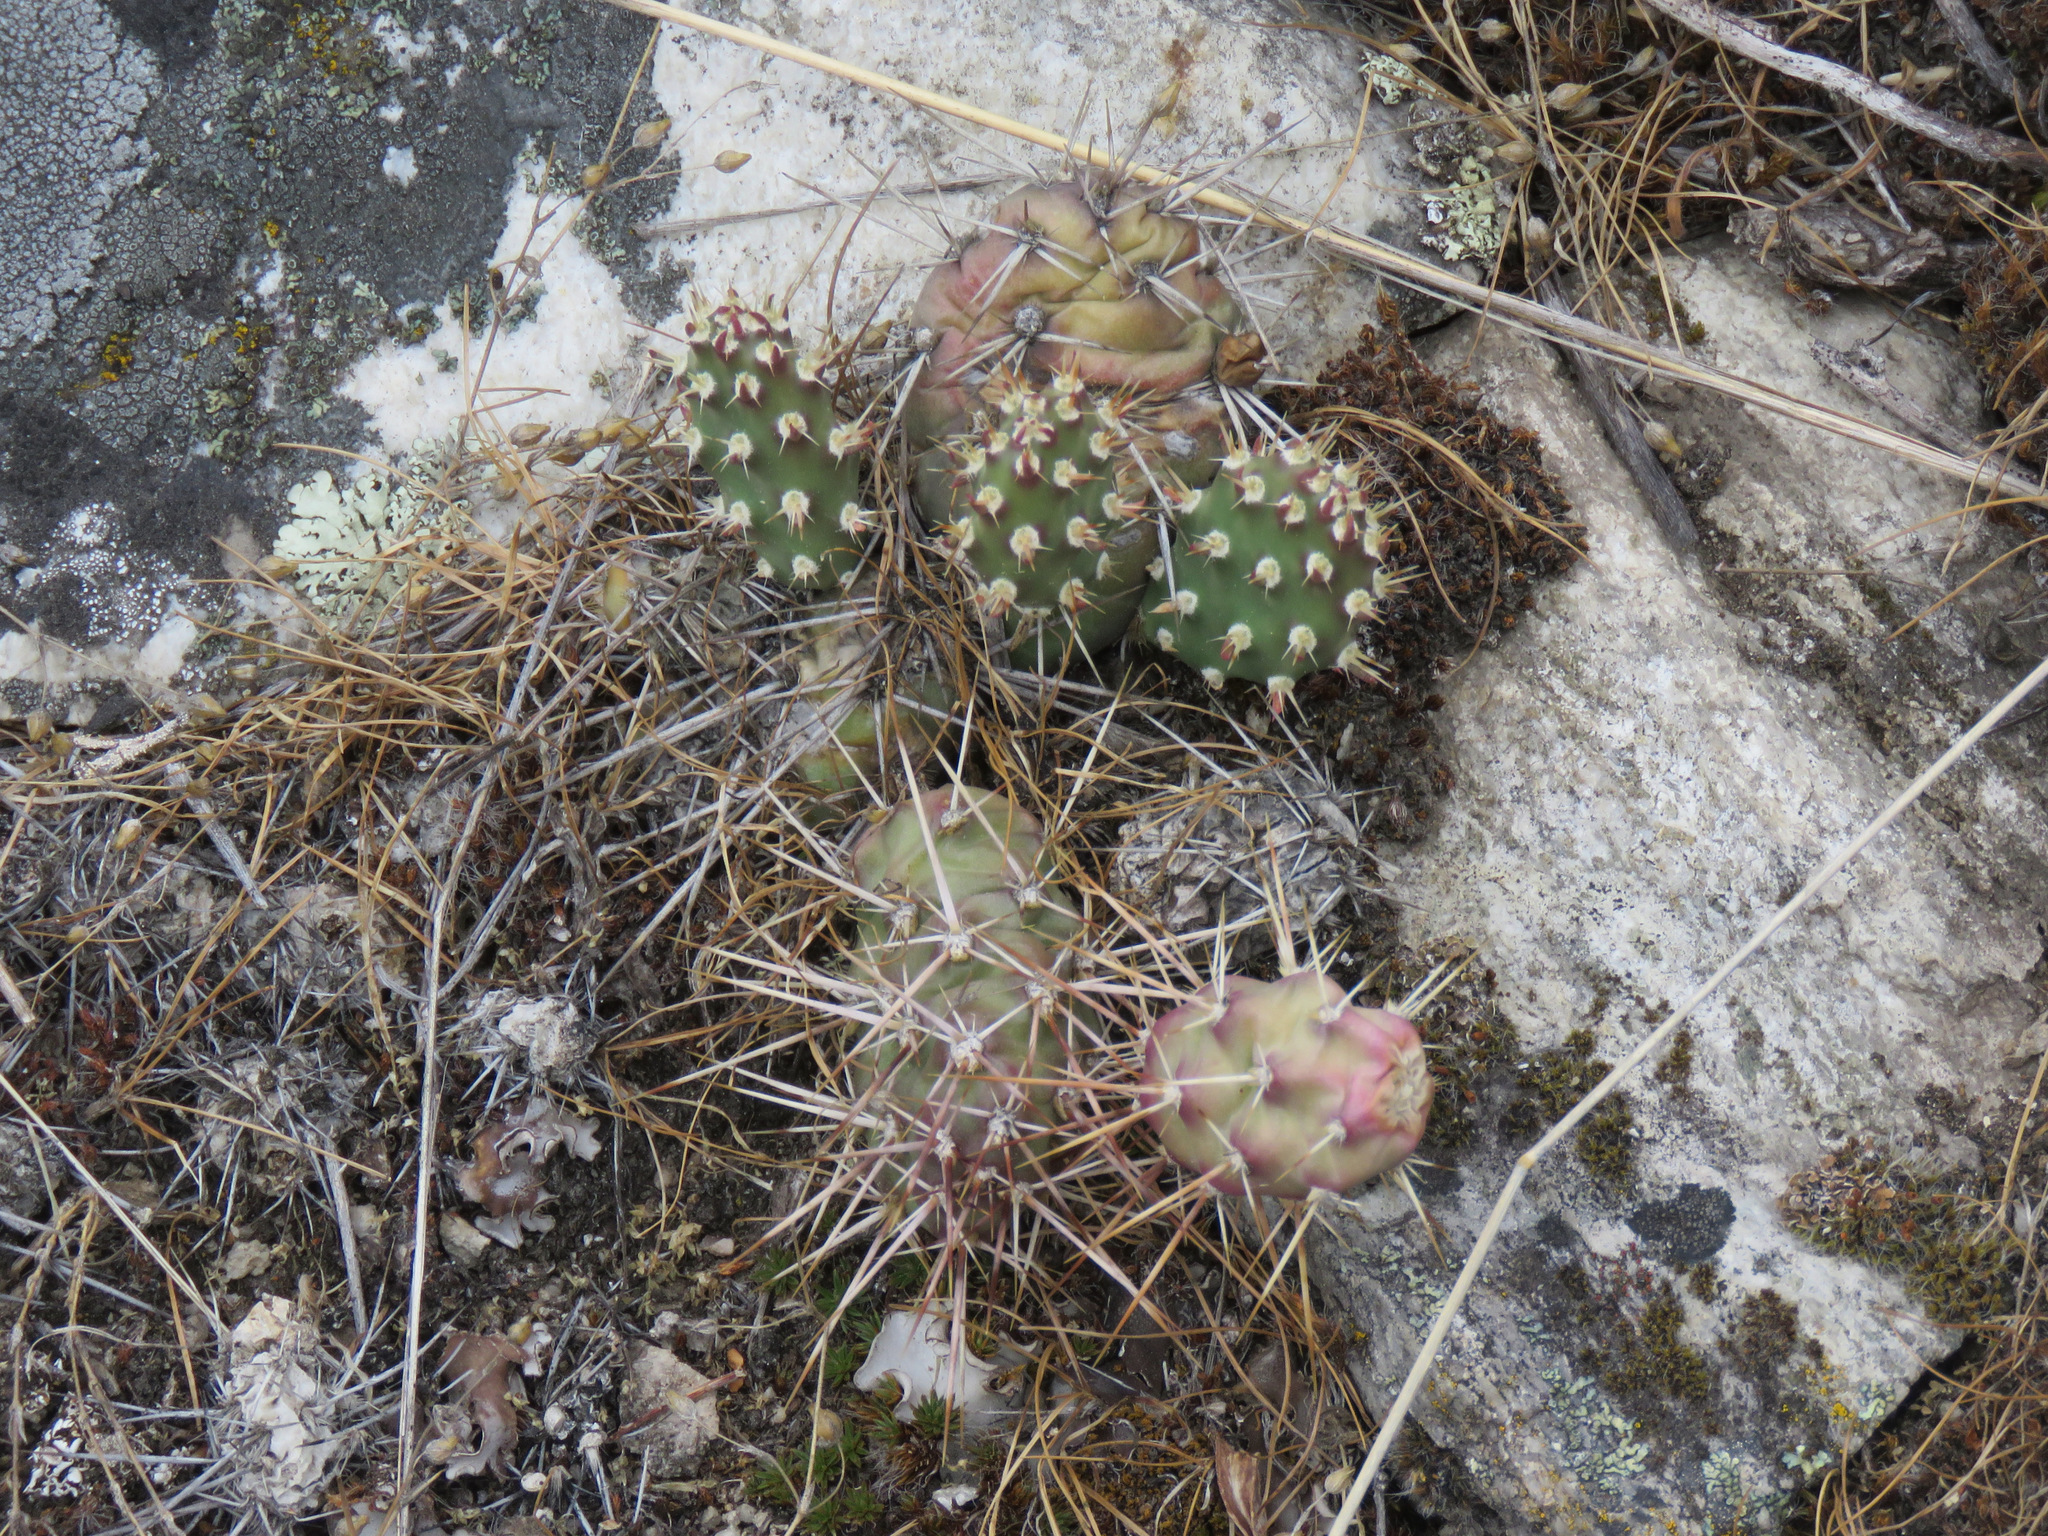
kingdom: Plantae
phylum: Tracheophyta
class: Magnoliopsida
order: Caryophyllales
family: Cactaceae
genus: Opuntia
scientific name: Opuntia fragilis
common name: Brittle cactus
